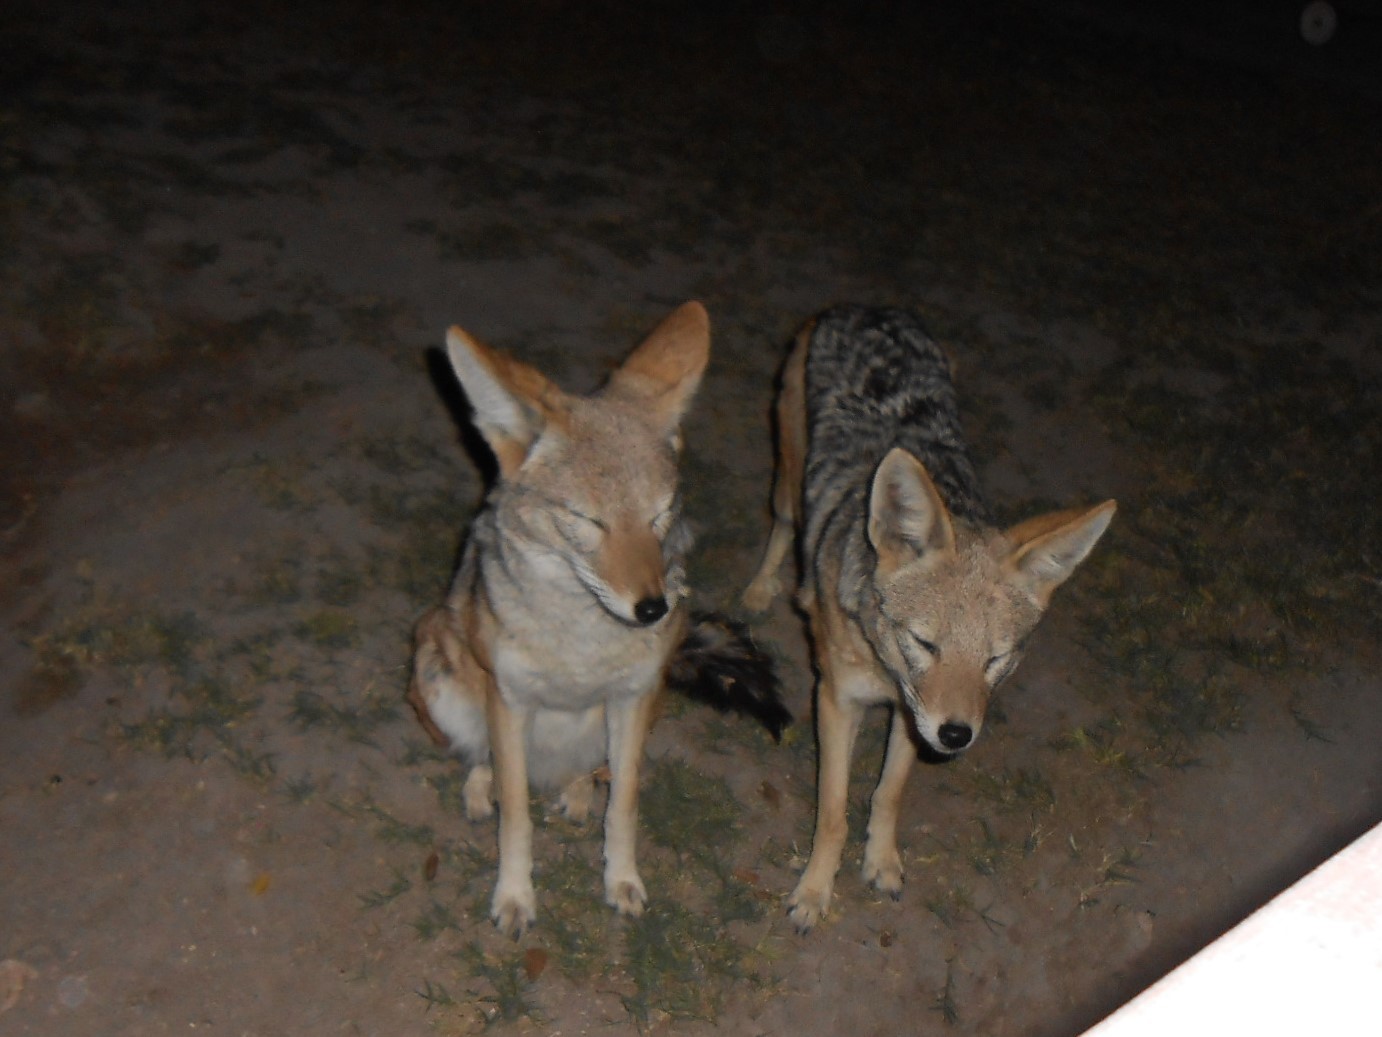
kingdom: Animalia
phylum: Chordata
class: Mammalia
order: Carnivora
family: Canidae
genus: Lupulella
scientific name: Lupulella
